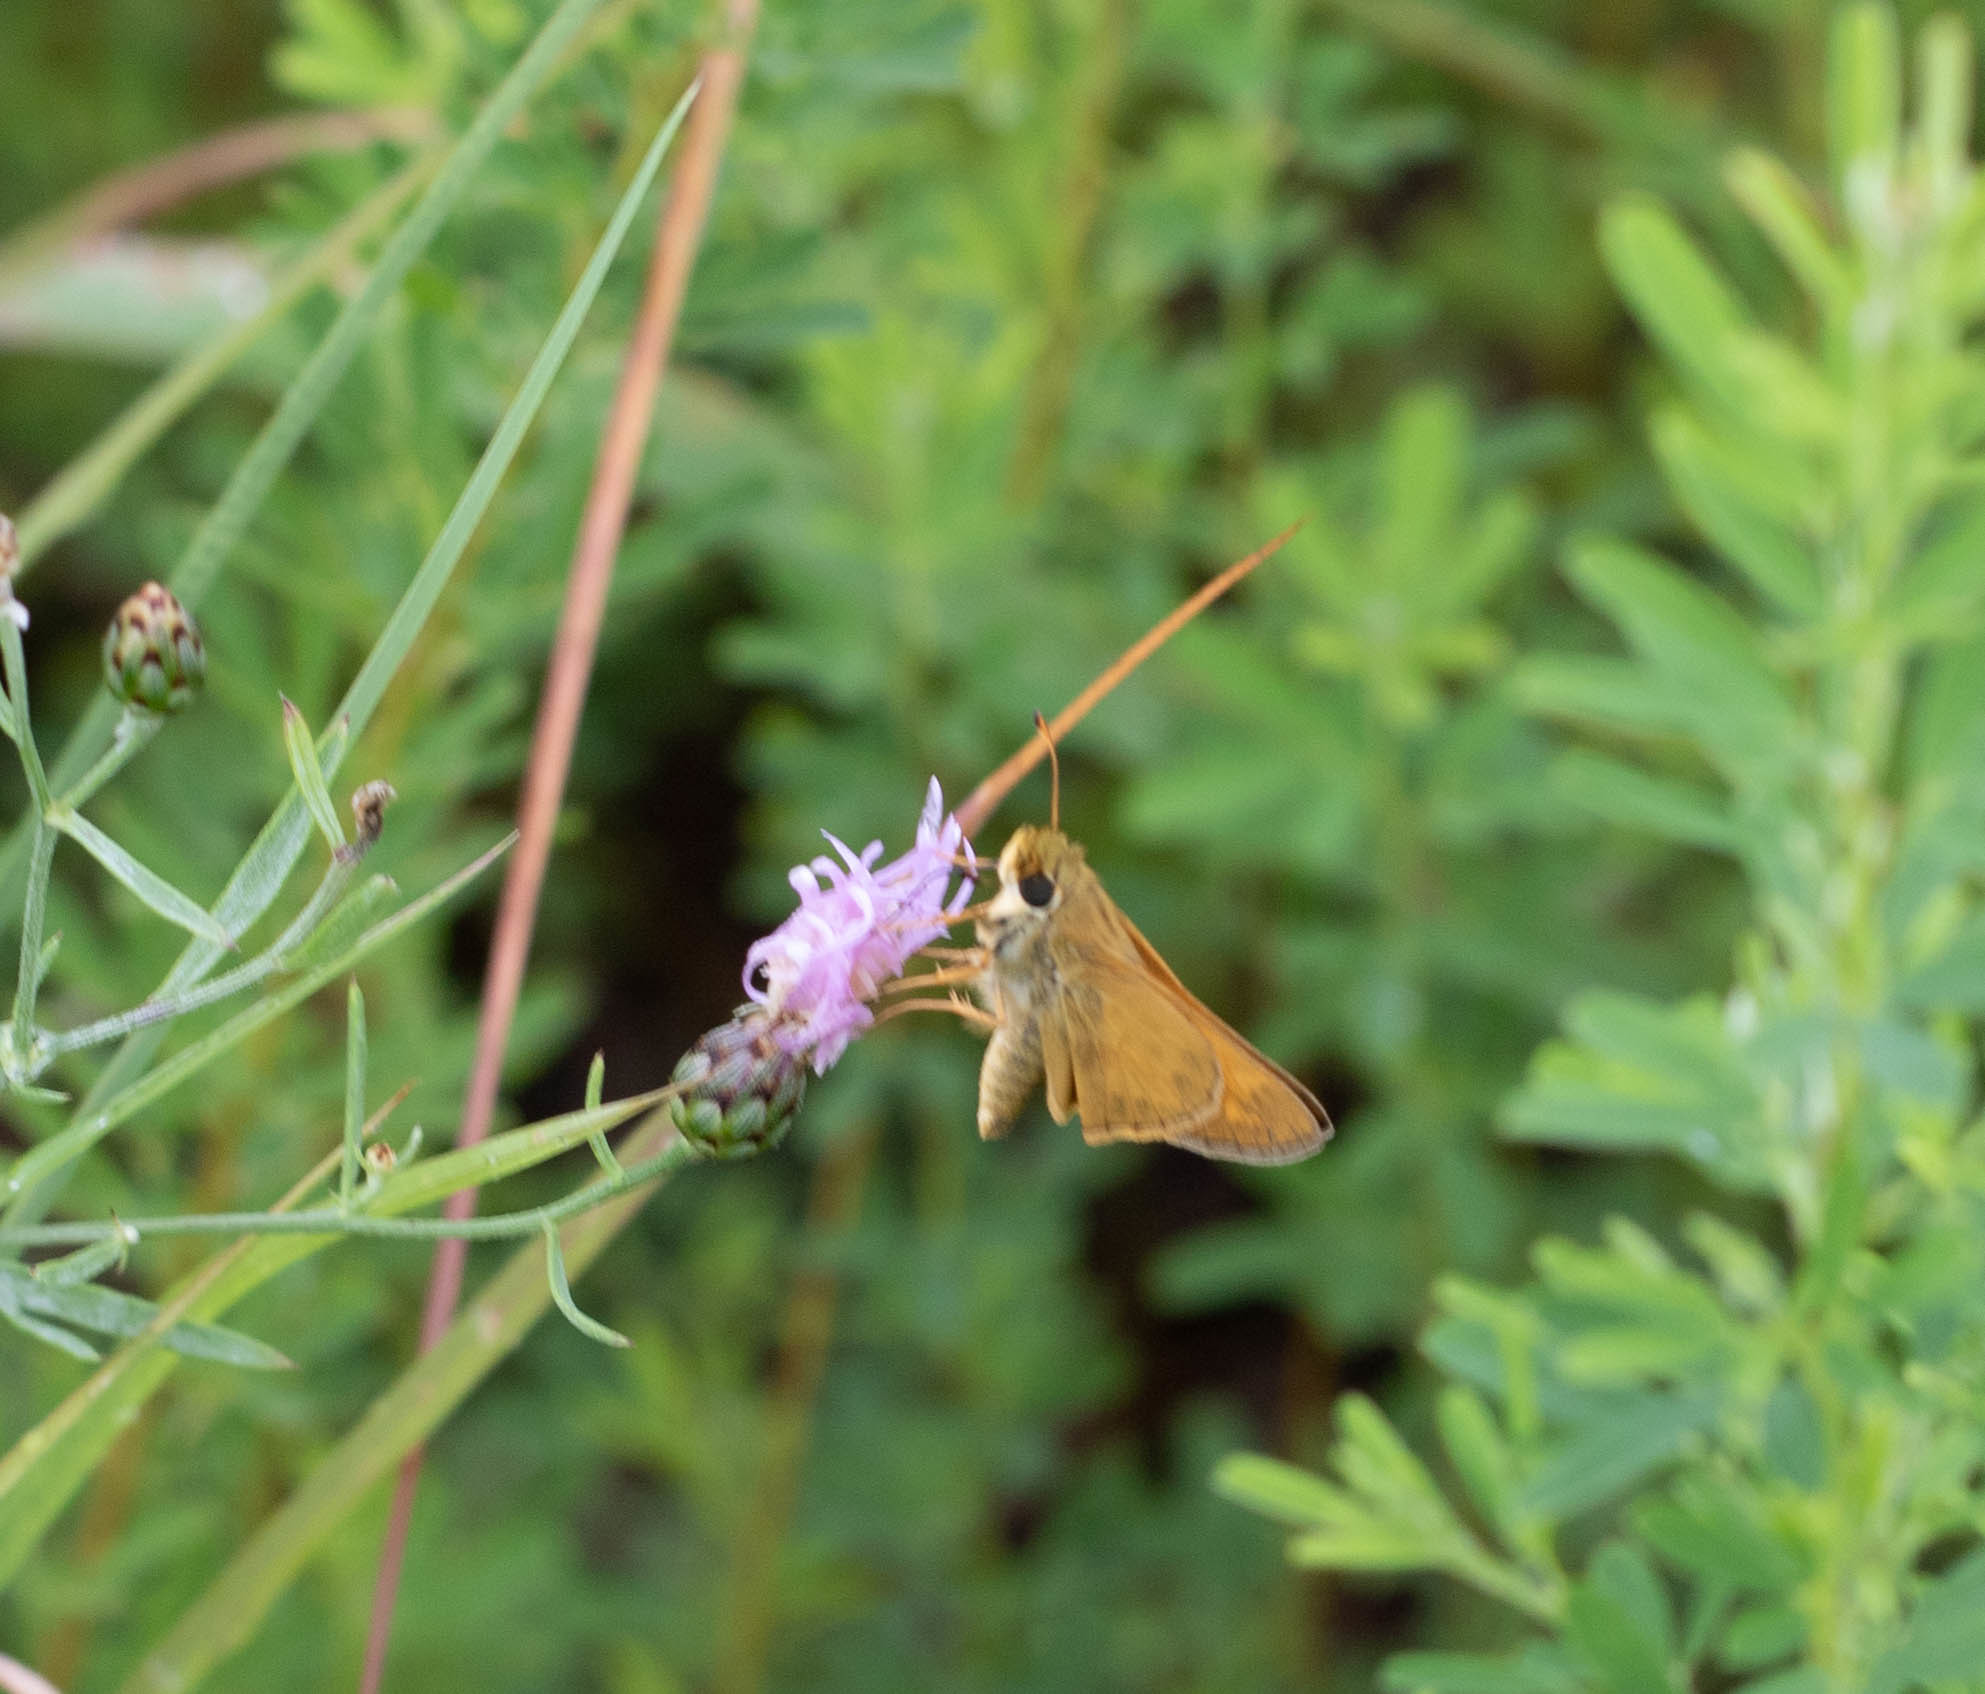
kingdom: Animalia
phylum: Arthropoda
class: Insecta
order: Lepidoptera
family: Hesperiidae
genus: Atalopedes
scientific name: Atalopedes
